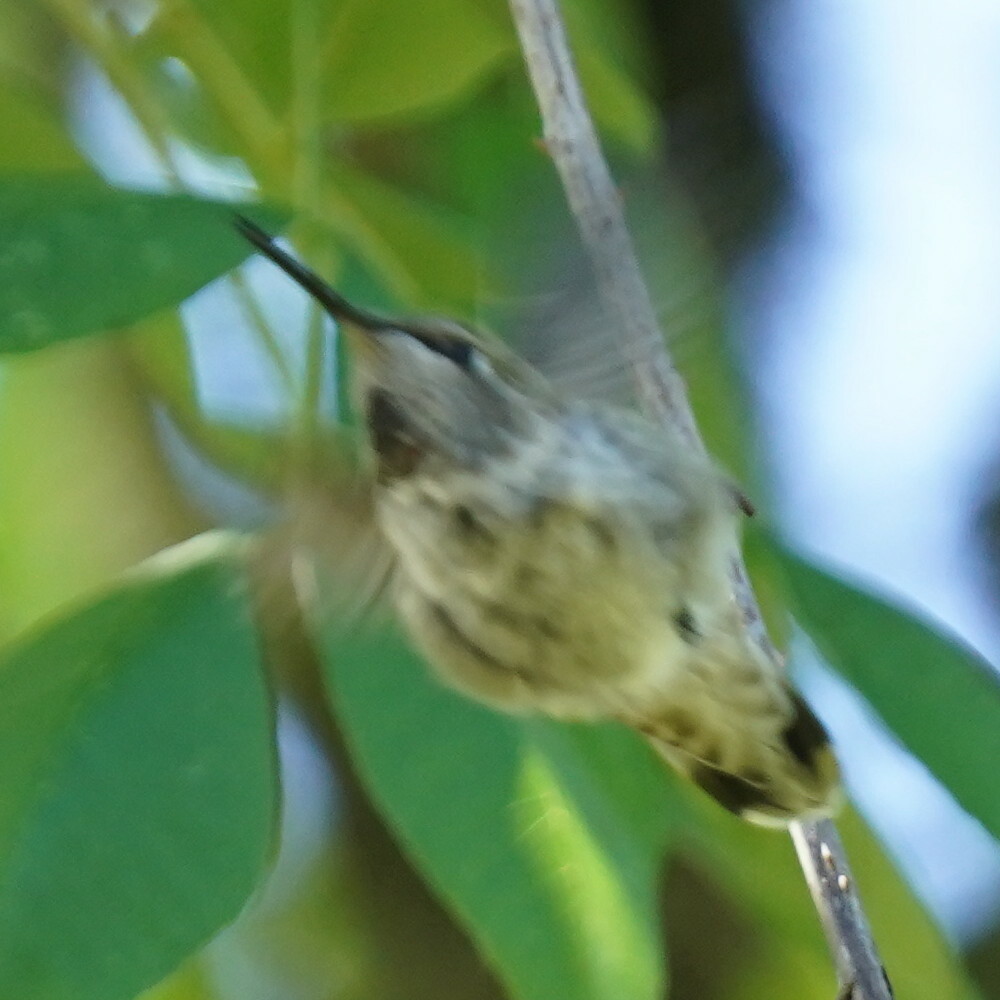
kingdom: Animalia
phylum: Chordata
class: Aves
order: Apodiformes
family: Trochilidae
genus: Calypte
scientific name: Calypte anna
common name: Anna's hummingbird
